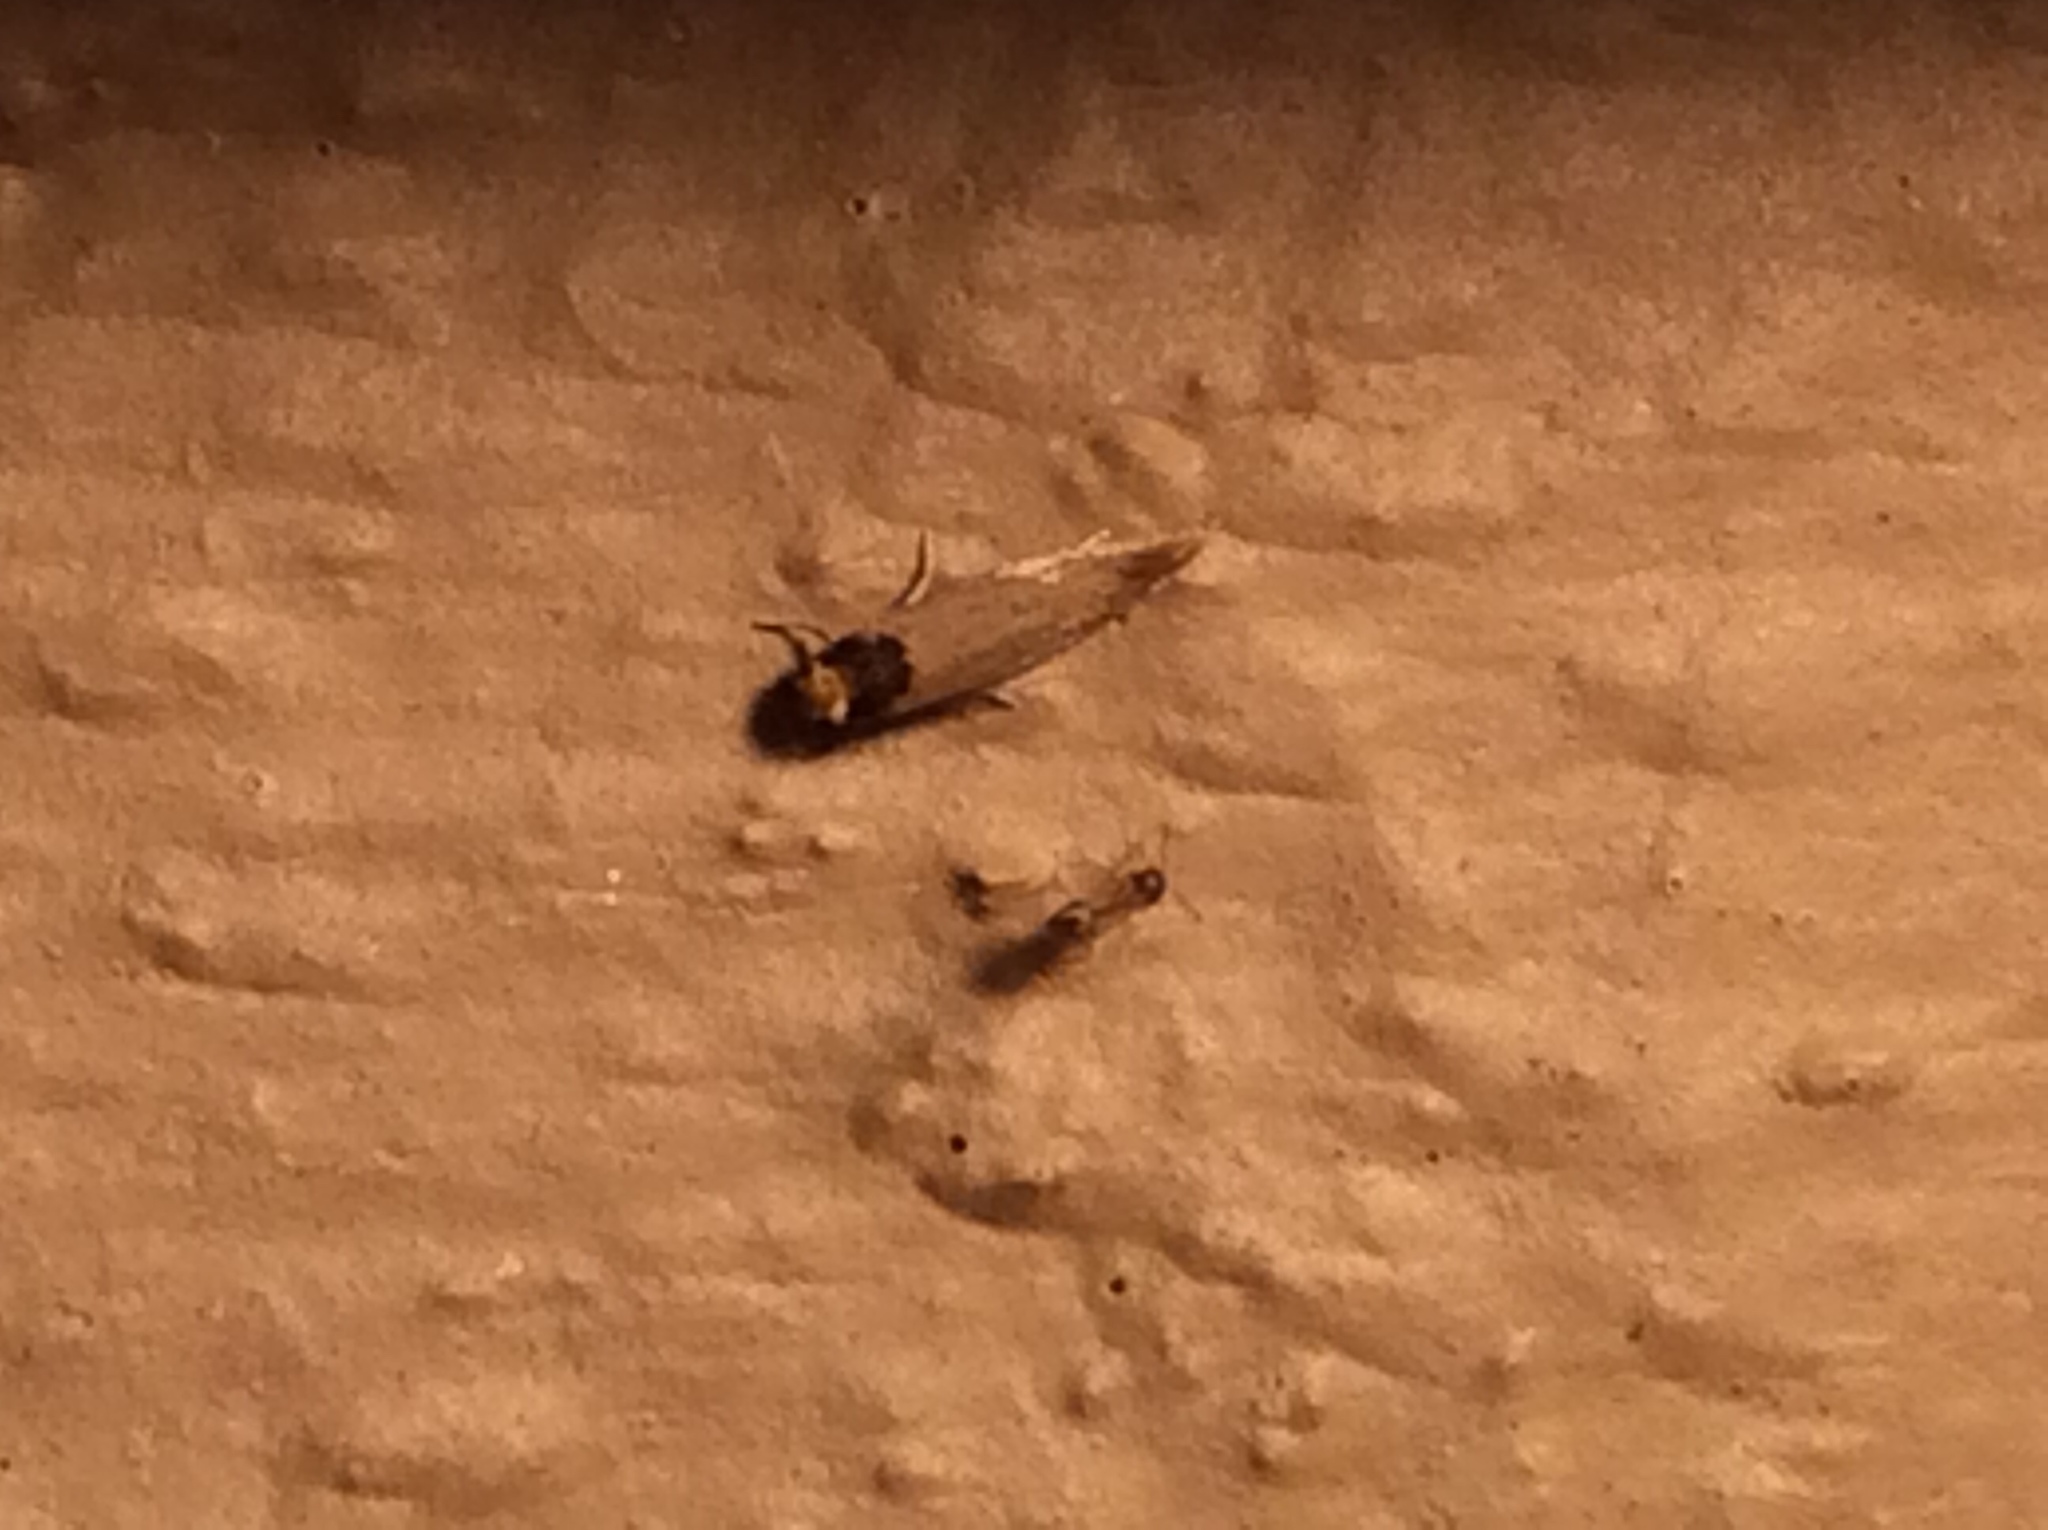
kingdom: Animalia
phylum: Arthropoda
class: Insecta
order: Lepidoptera
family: Meessiidae
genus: Homostinea
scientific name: Homostinea curviliniella
